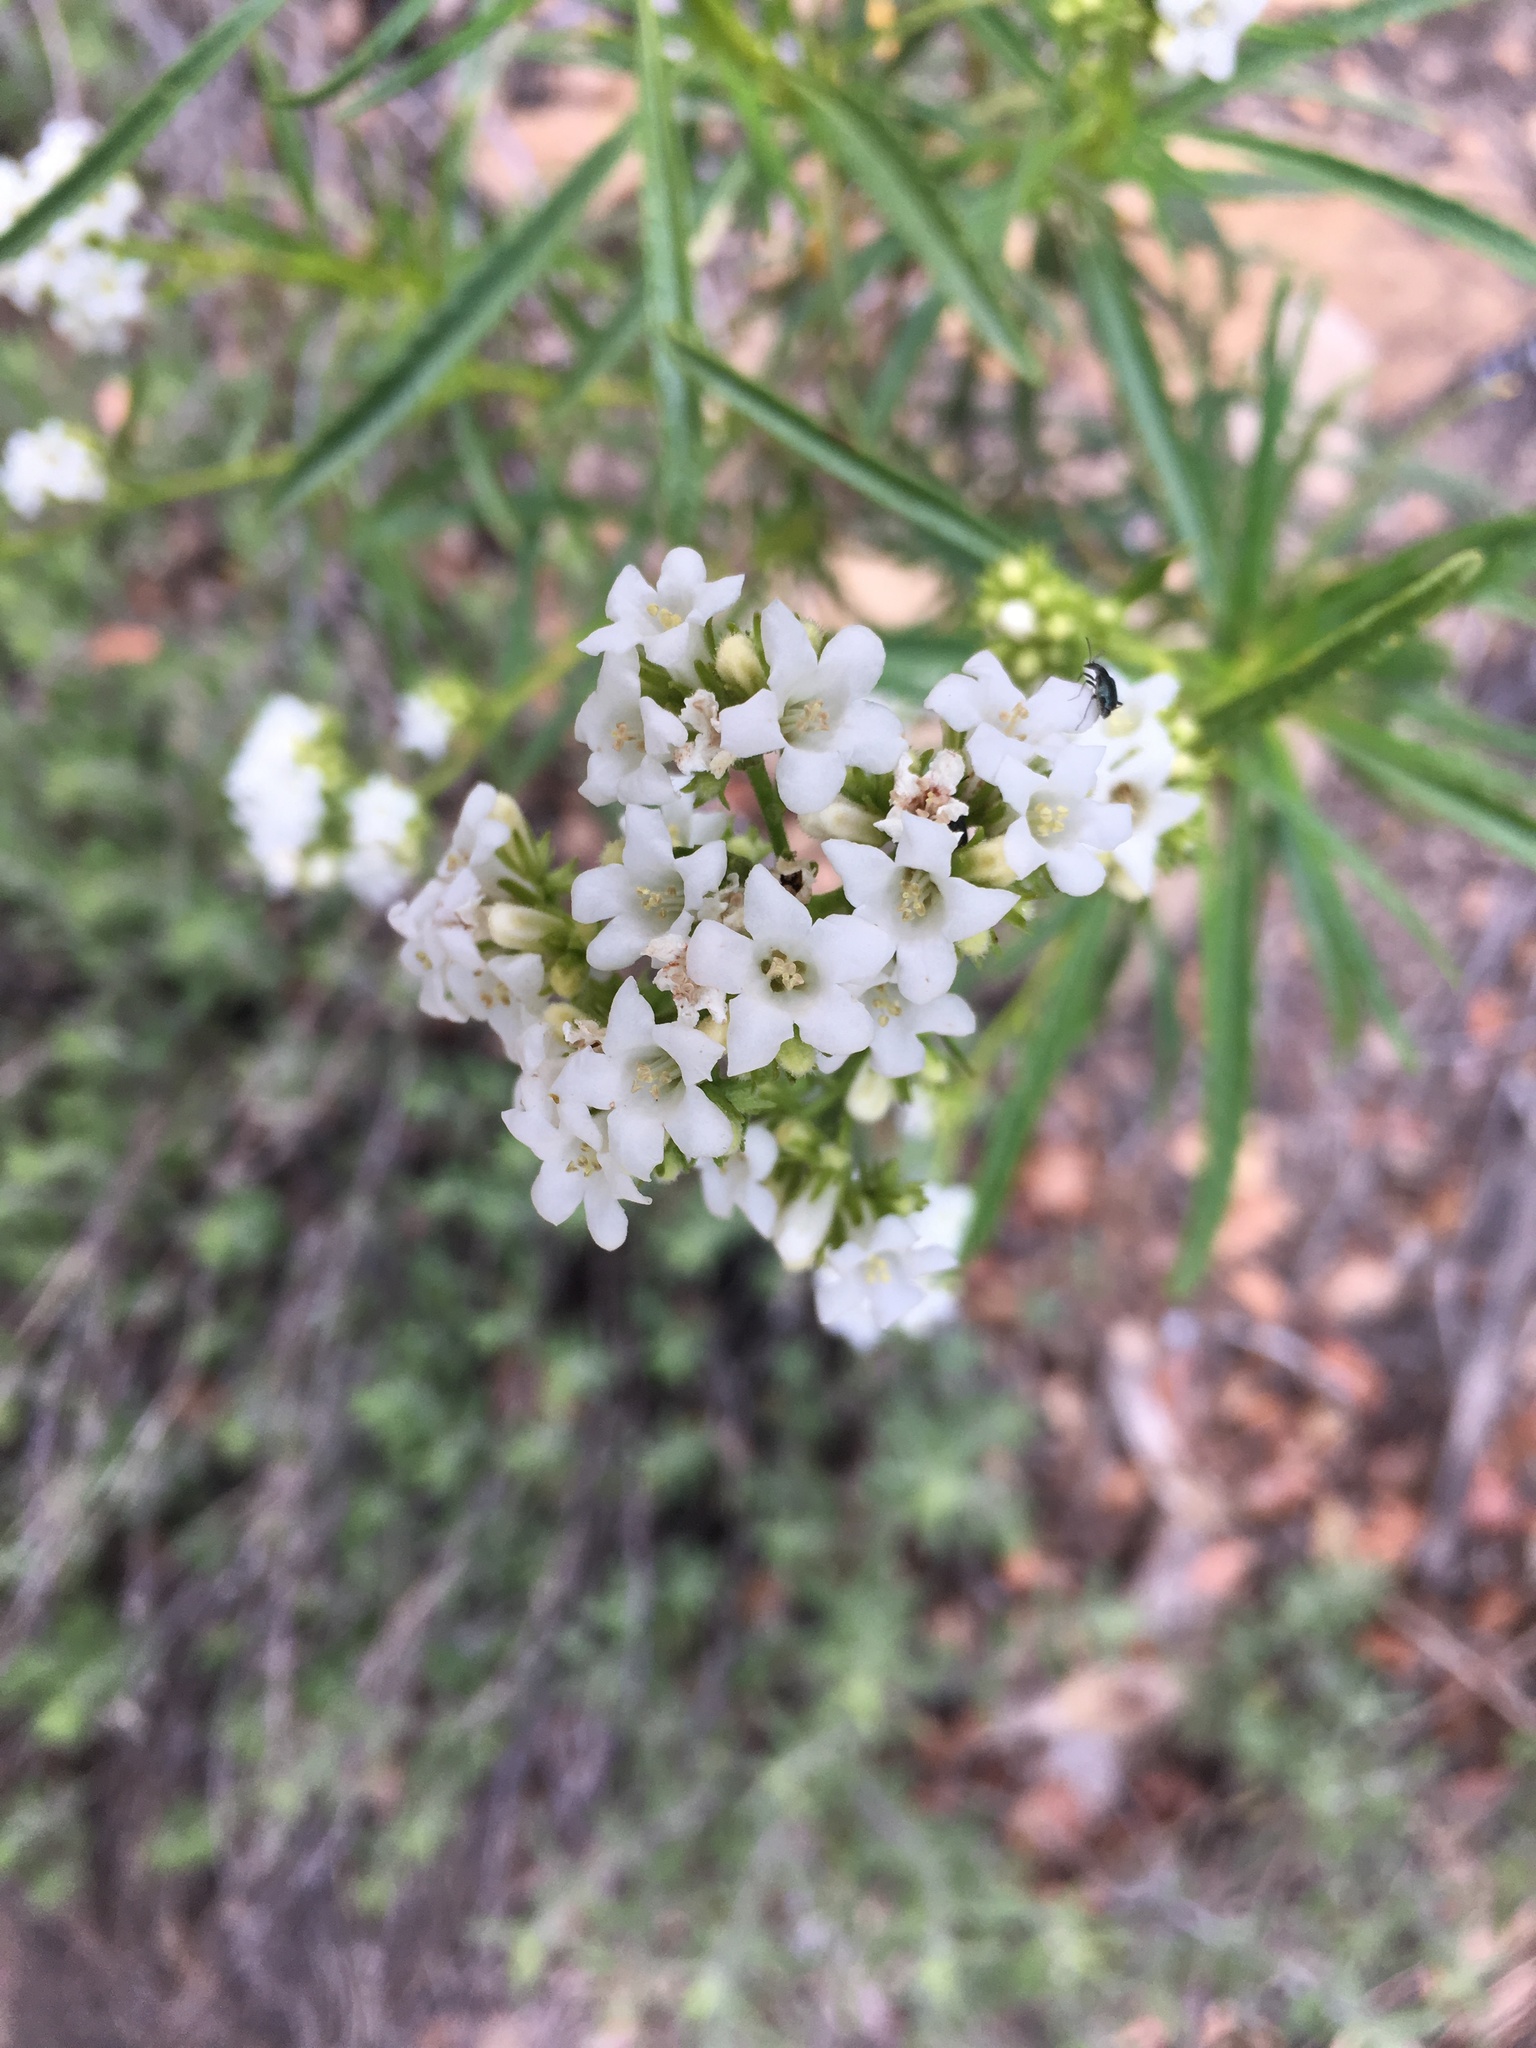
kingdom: Plantae
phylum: Tracheophyta
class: Magnoliopsida
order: Boraginales
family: Namaceae
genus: Eriodictyon
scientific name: Eriodictyon angustifolium
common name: Narrow-leaf yerba santa
